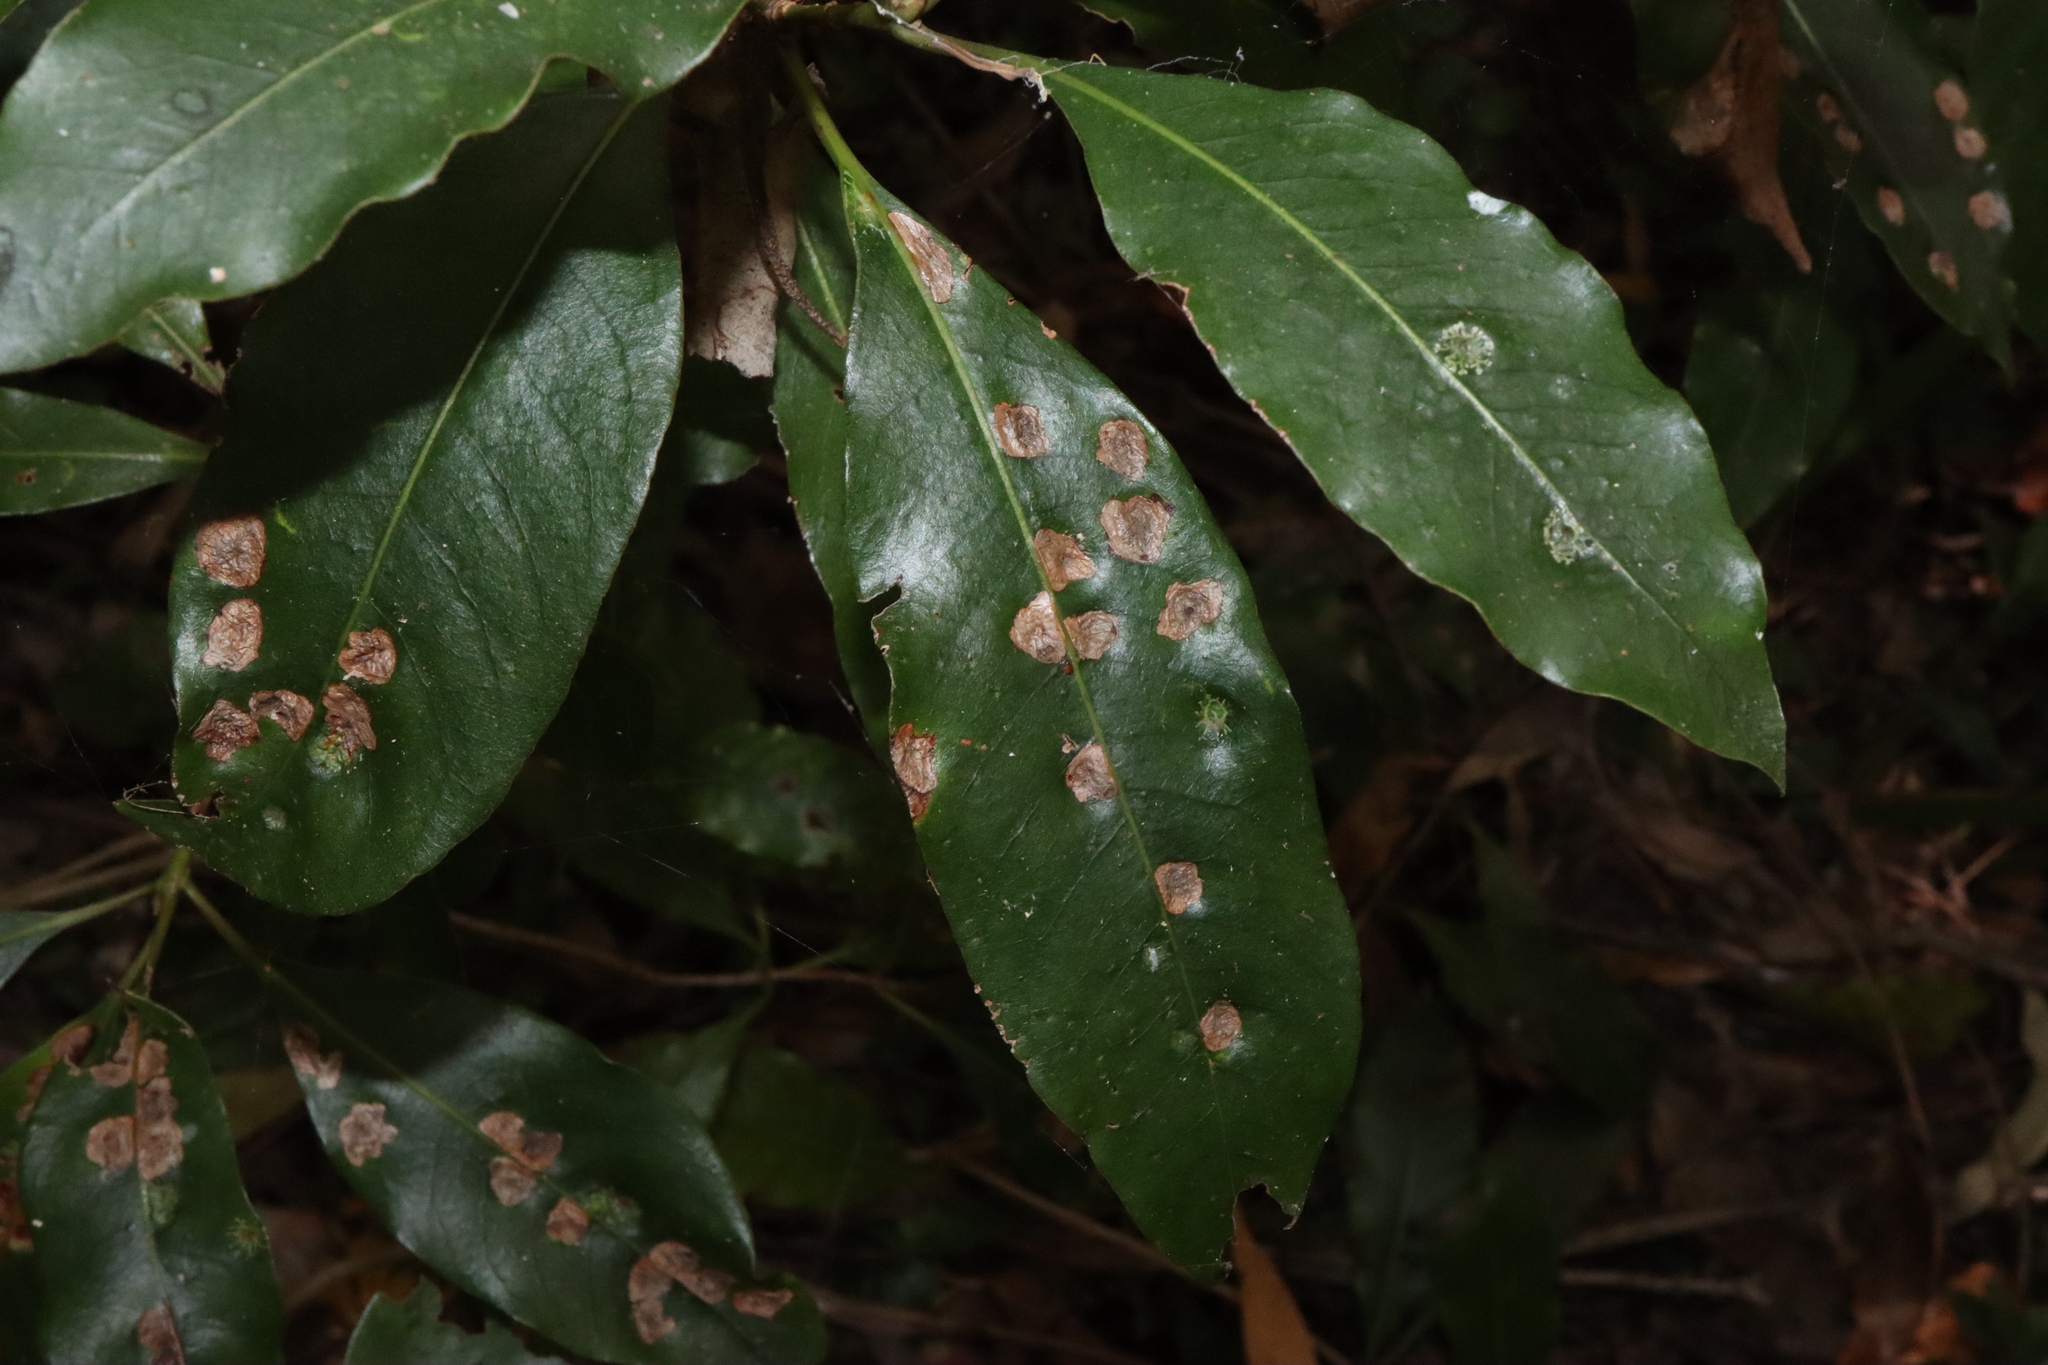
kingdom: Animalia
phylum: Arthropoda
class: Insecta
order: Diptera
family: Agromyzidae
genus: Phytoliriomyza
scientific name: Phytoliriomyza pittosporophylli
